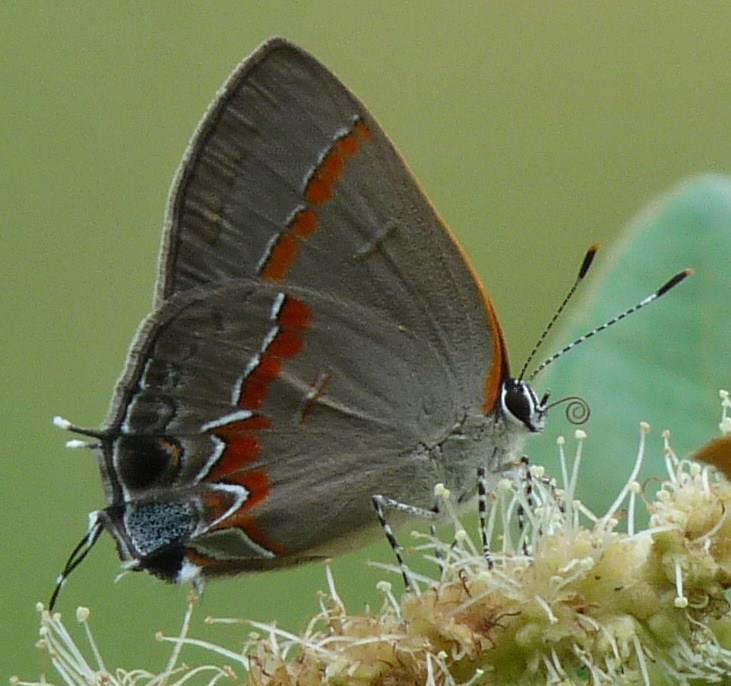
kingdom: Animalia
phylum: Arthropoda
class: Insecta
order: Lepidoptera
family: Lycaenidae
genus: Calycopis
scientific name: Calycopis cecrops
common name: Red-banded hairstreak
